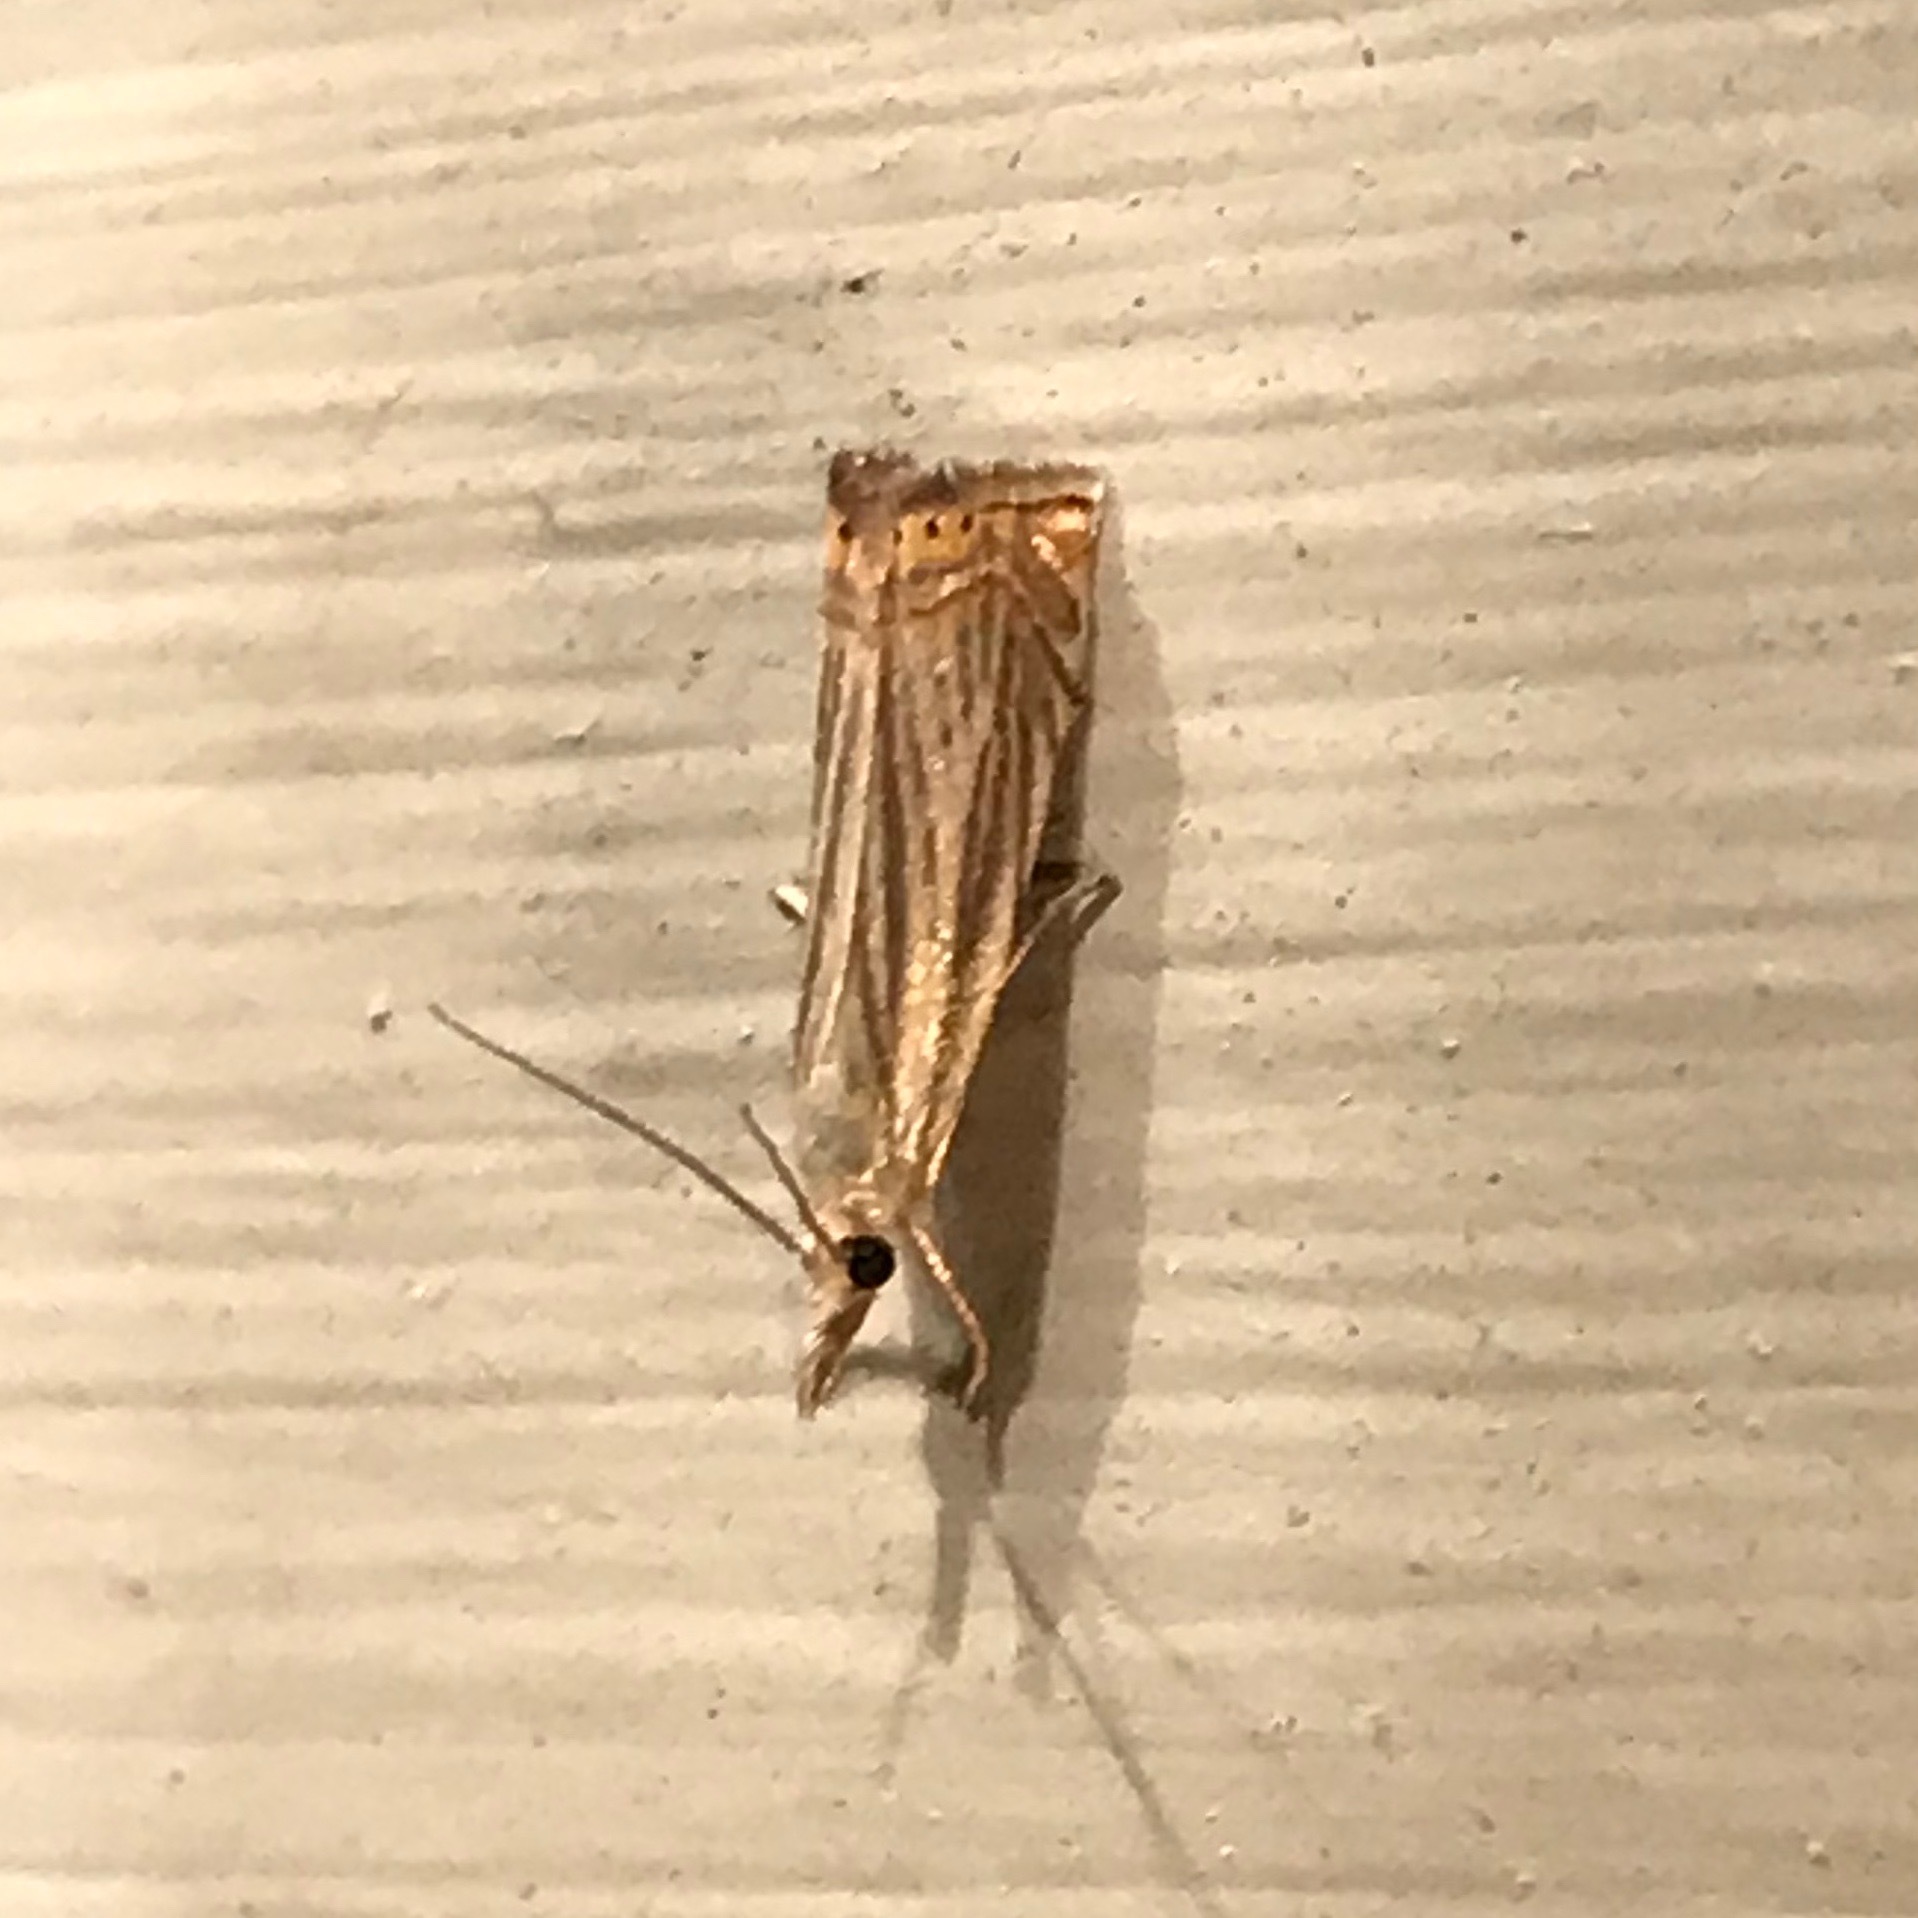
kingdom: Animalia
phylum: Arthropoda
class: Insecta
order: Lepidoptera
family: Crambidae
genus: Chrysoteuchia
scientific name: Chrysoteuchia topiarius
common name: Topiary grass-veneer
